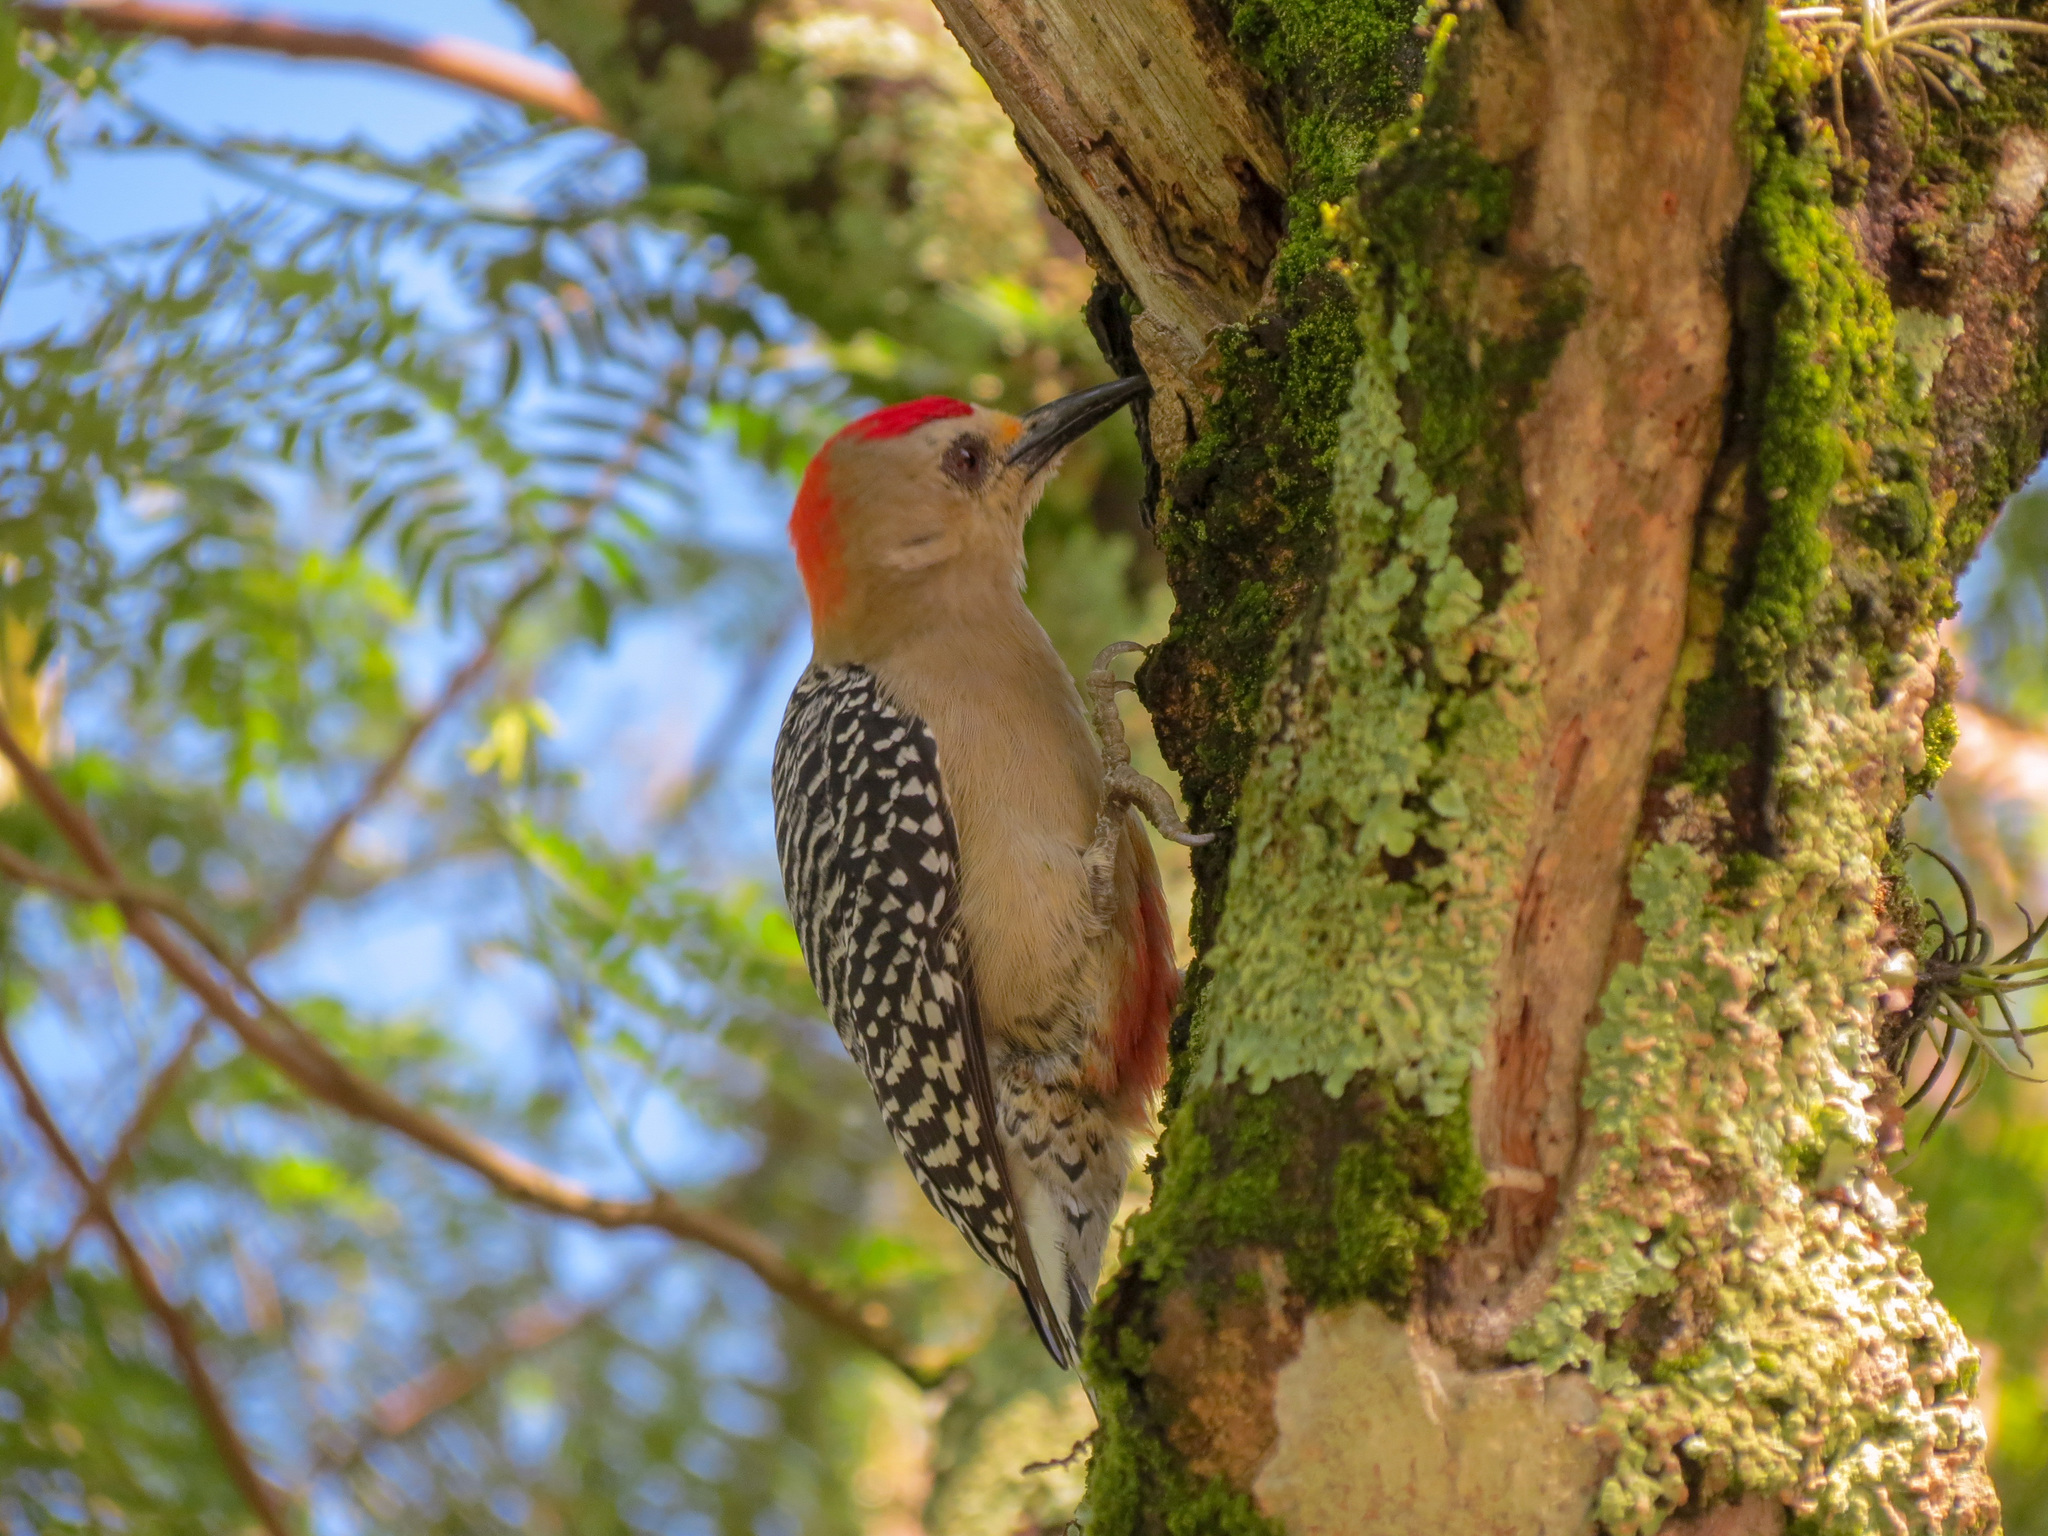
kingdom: Animalia
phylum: Chordata
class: Aves
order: Piciformes
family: Picidae
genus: Melanerpes
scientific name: Melanerpes rubricapillus
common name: Red-crowned woodpecker
